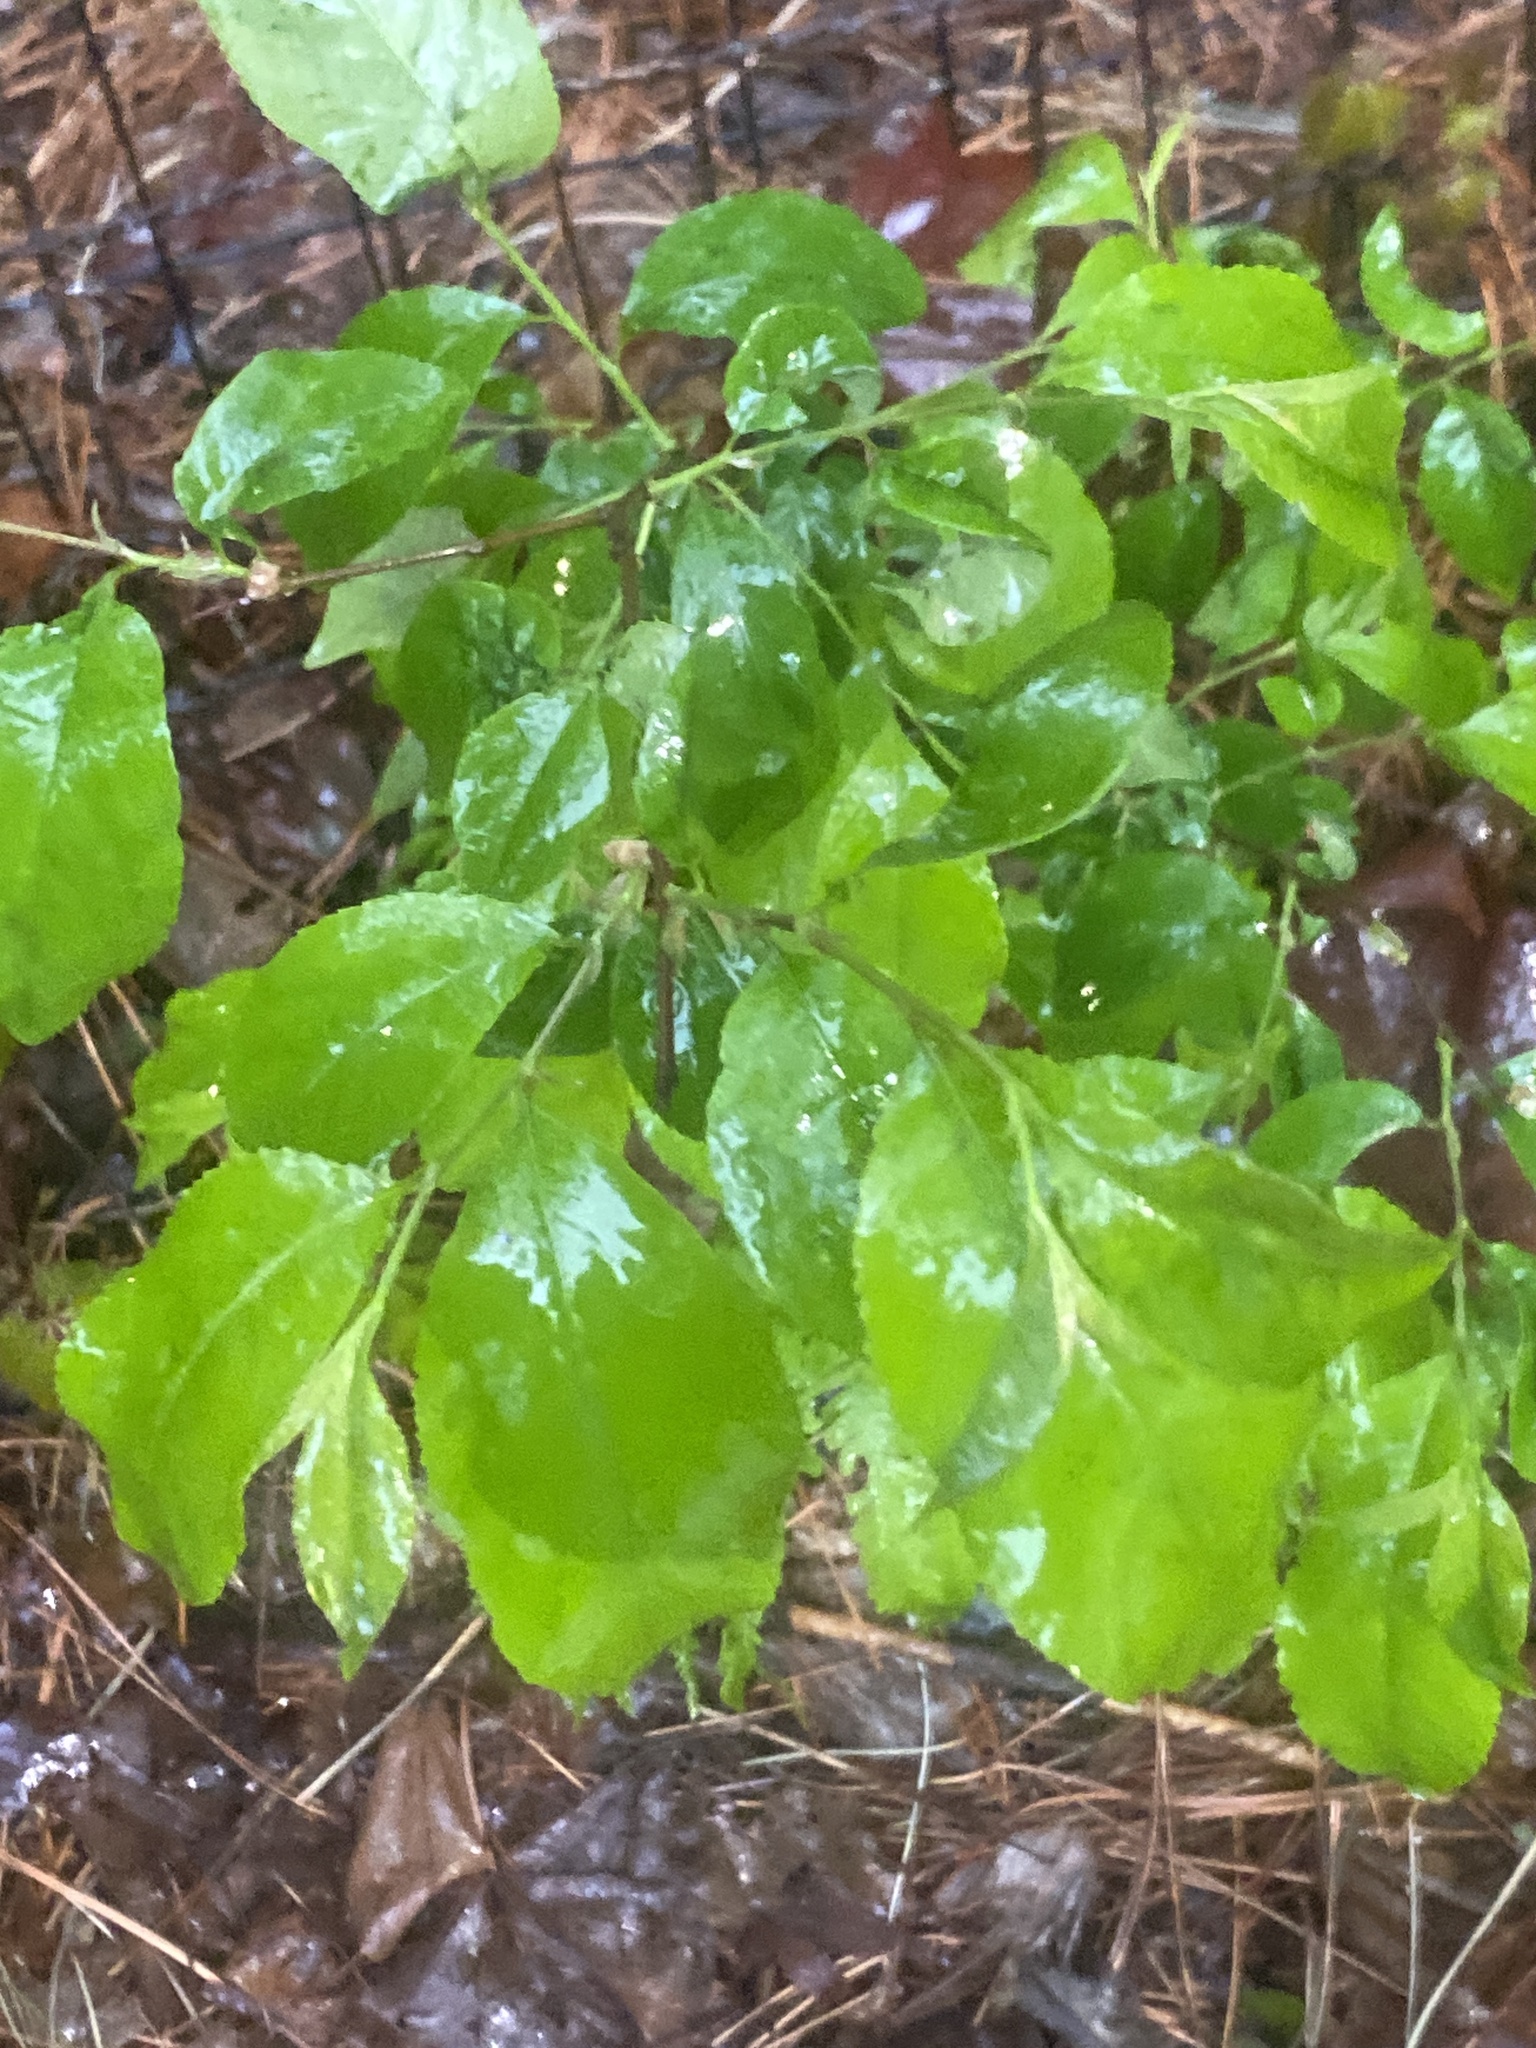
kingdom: Plantae
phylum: Tracheophyta
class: Magnoliopsida
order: Rosales
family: Rosaceae
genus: Prunus
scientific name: Prunus serotina
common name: Black cherry
